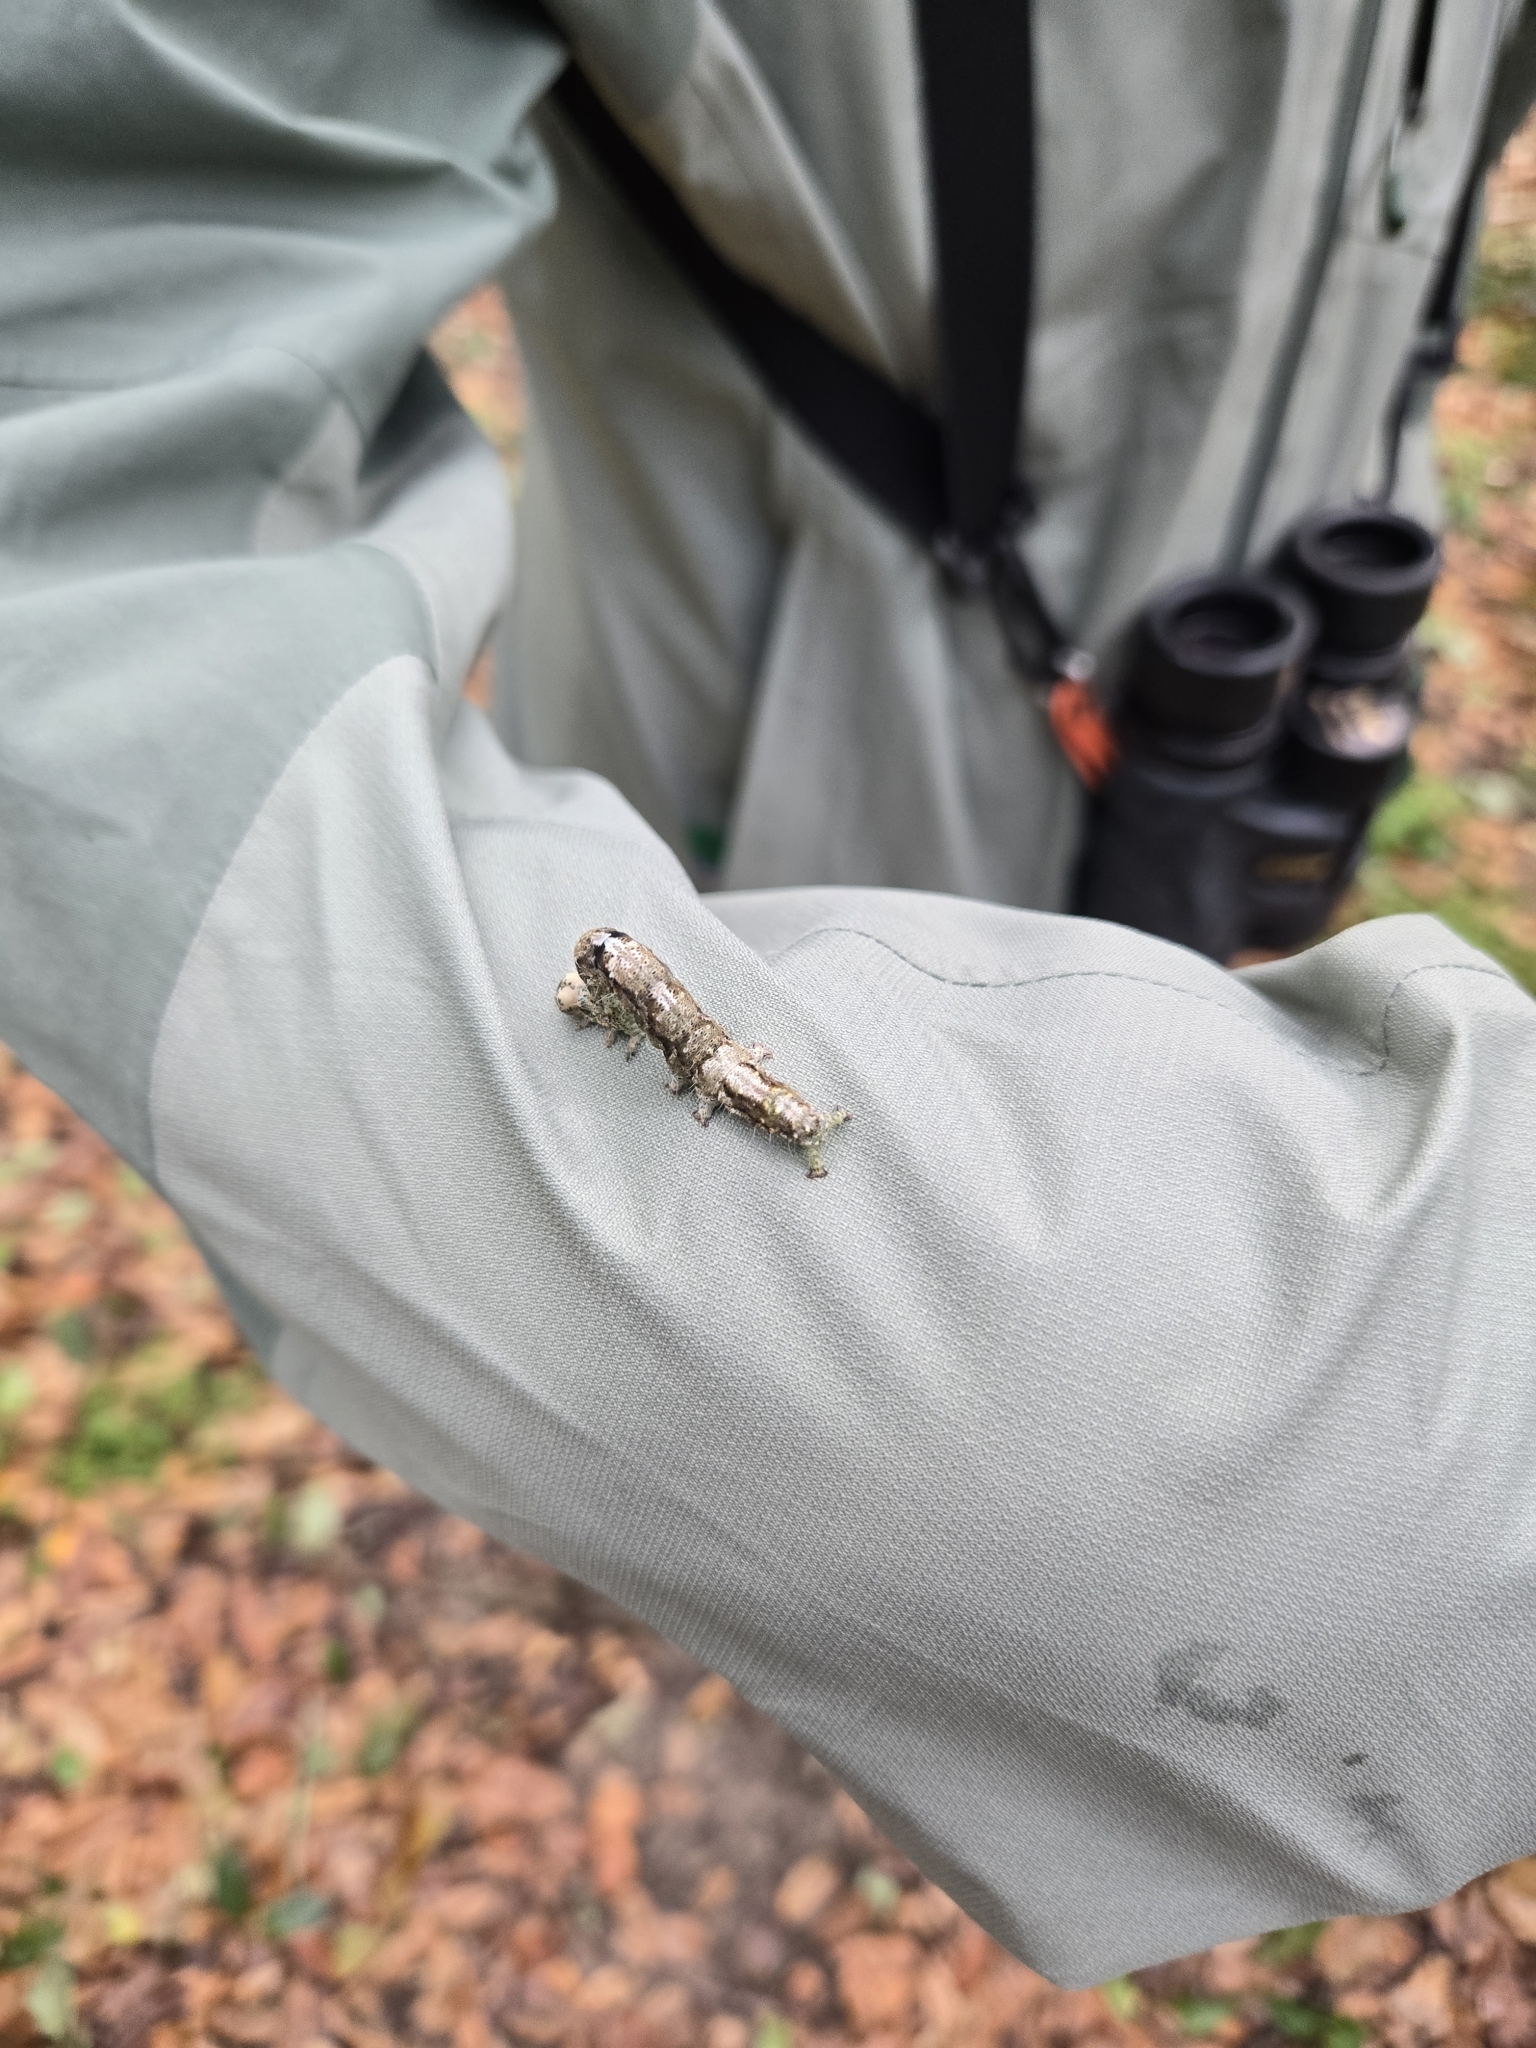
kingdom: Animalia
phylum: Arthropoda
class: Insecta
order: Lepidoptera
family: Erebidae
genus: Metria
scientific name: Metria amella
